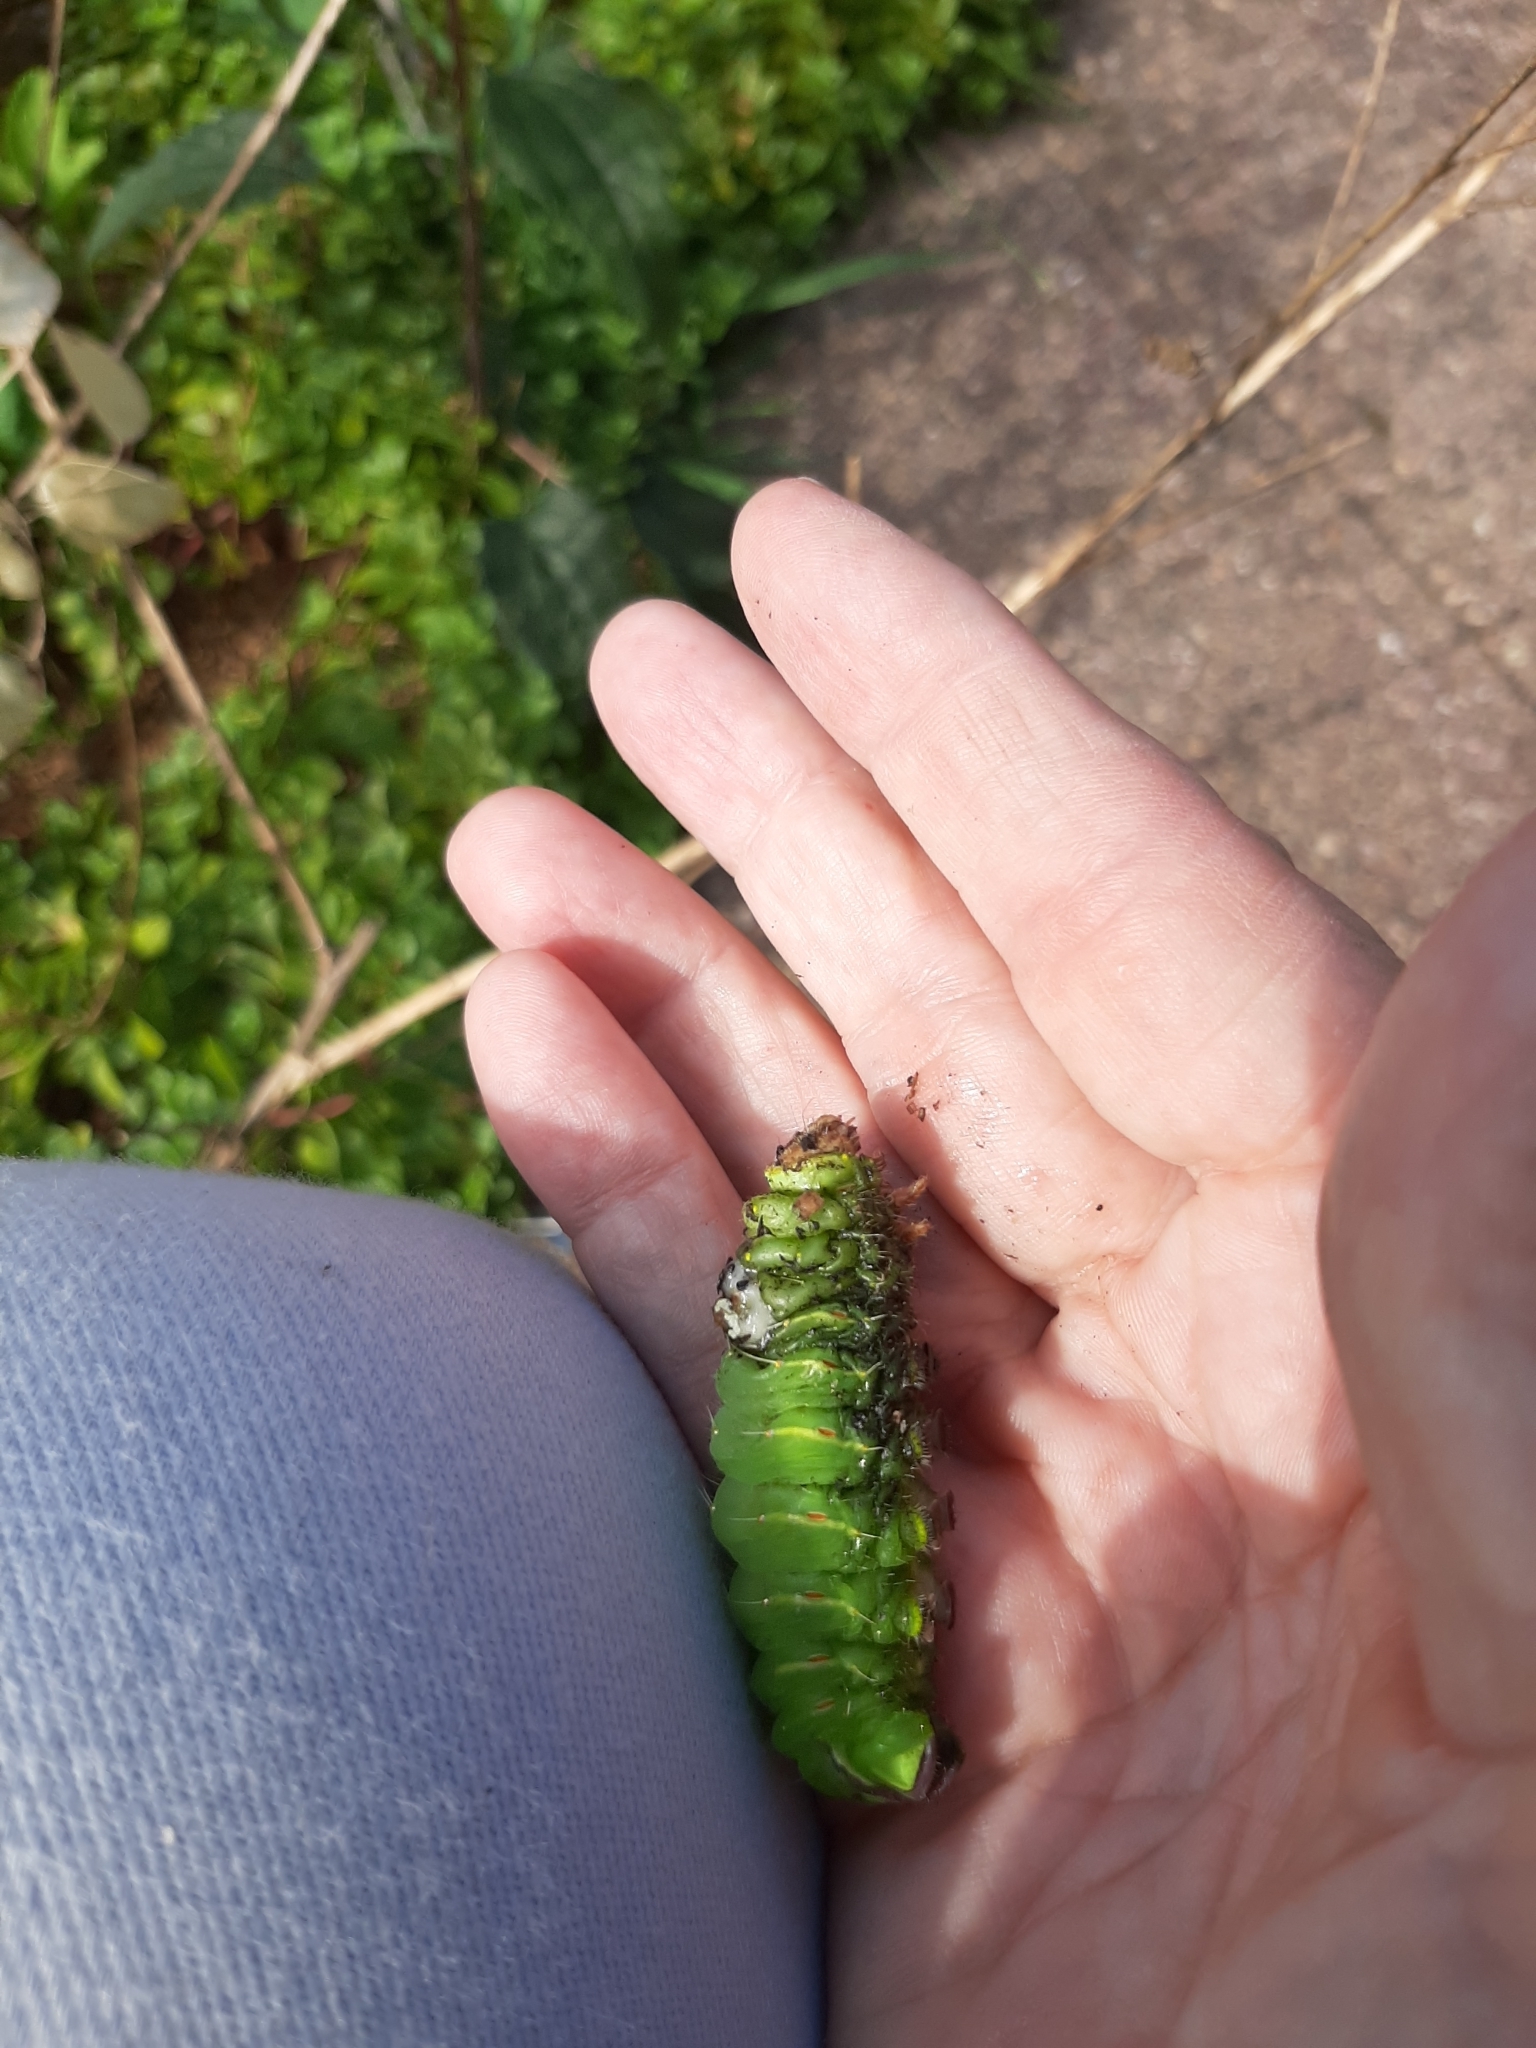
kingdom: Animalia
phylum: Arthropoda
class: Insecta
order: Lepidoptera
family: Saturniidae
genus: Antheraea
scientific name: Antheraea polyphemus
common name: Polyphemus moth
